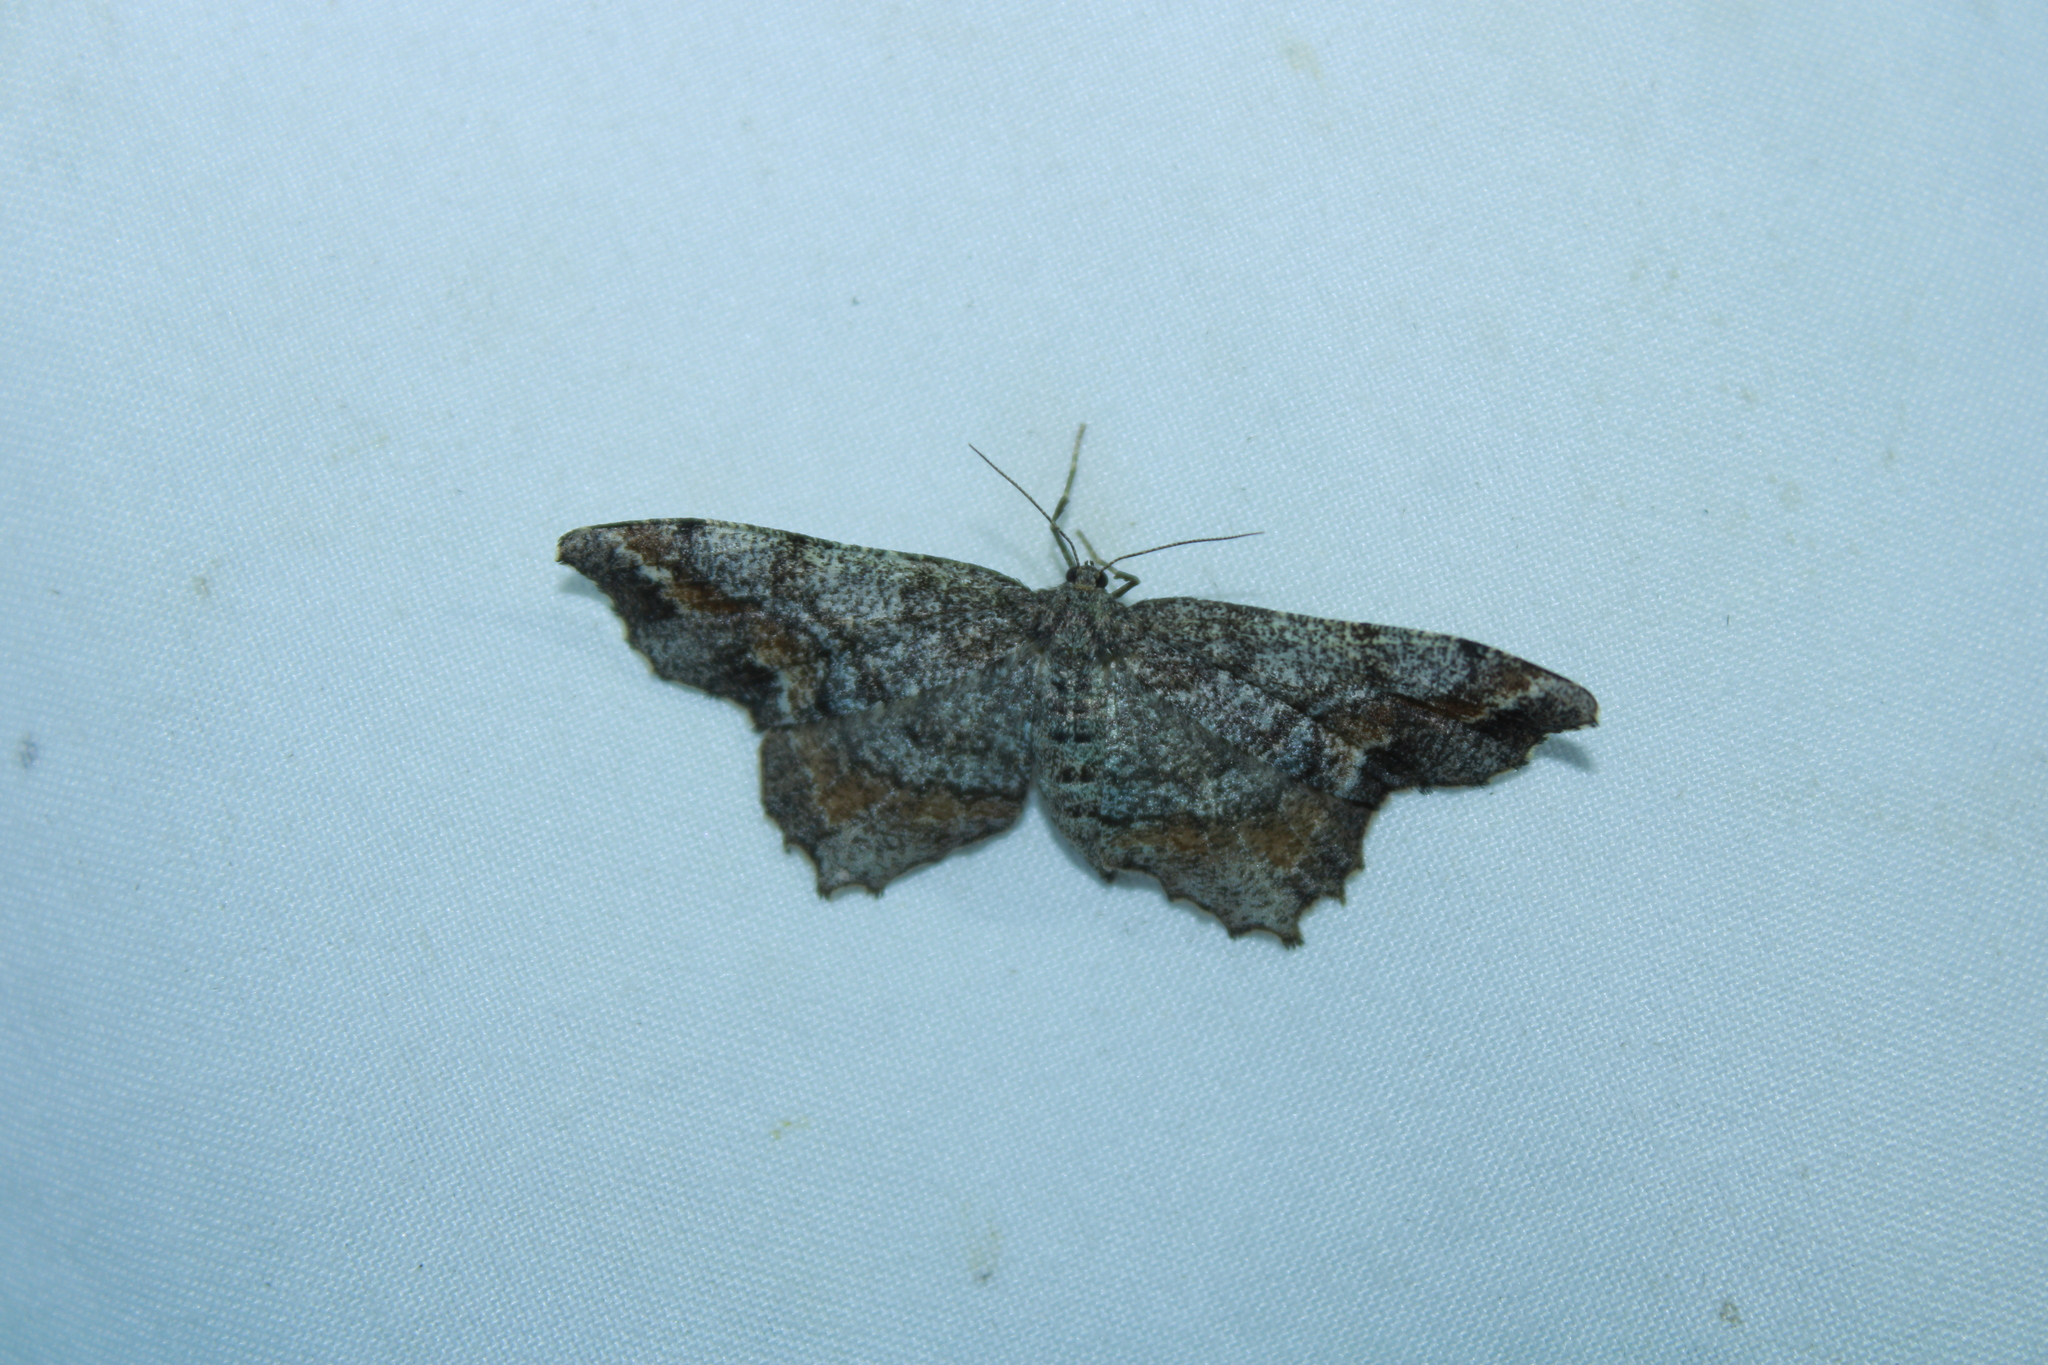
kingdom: Animalia
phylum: Arthropoda
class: Insecta
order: Lepidoptera
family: Geometridae
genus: Hypagyrtis
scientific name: Hypagyrtis unipunctata
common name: One-spotted variant
